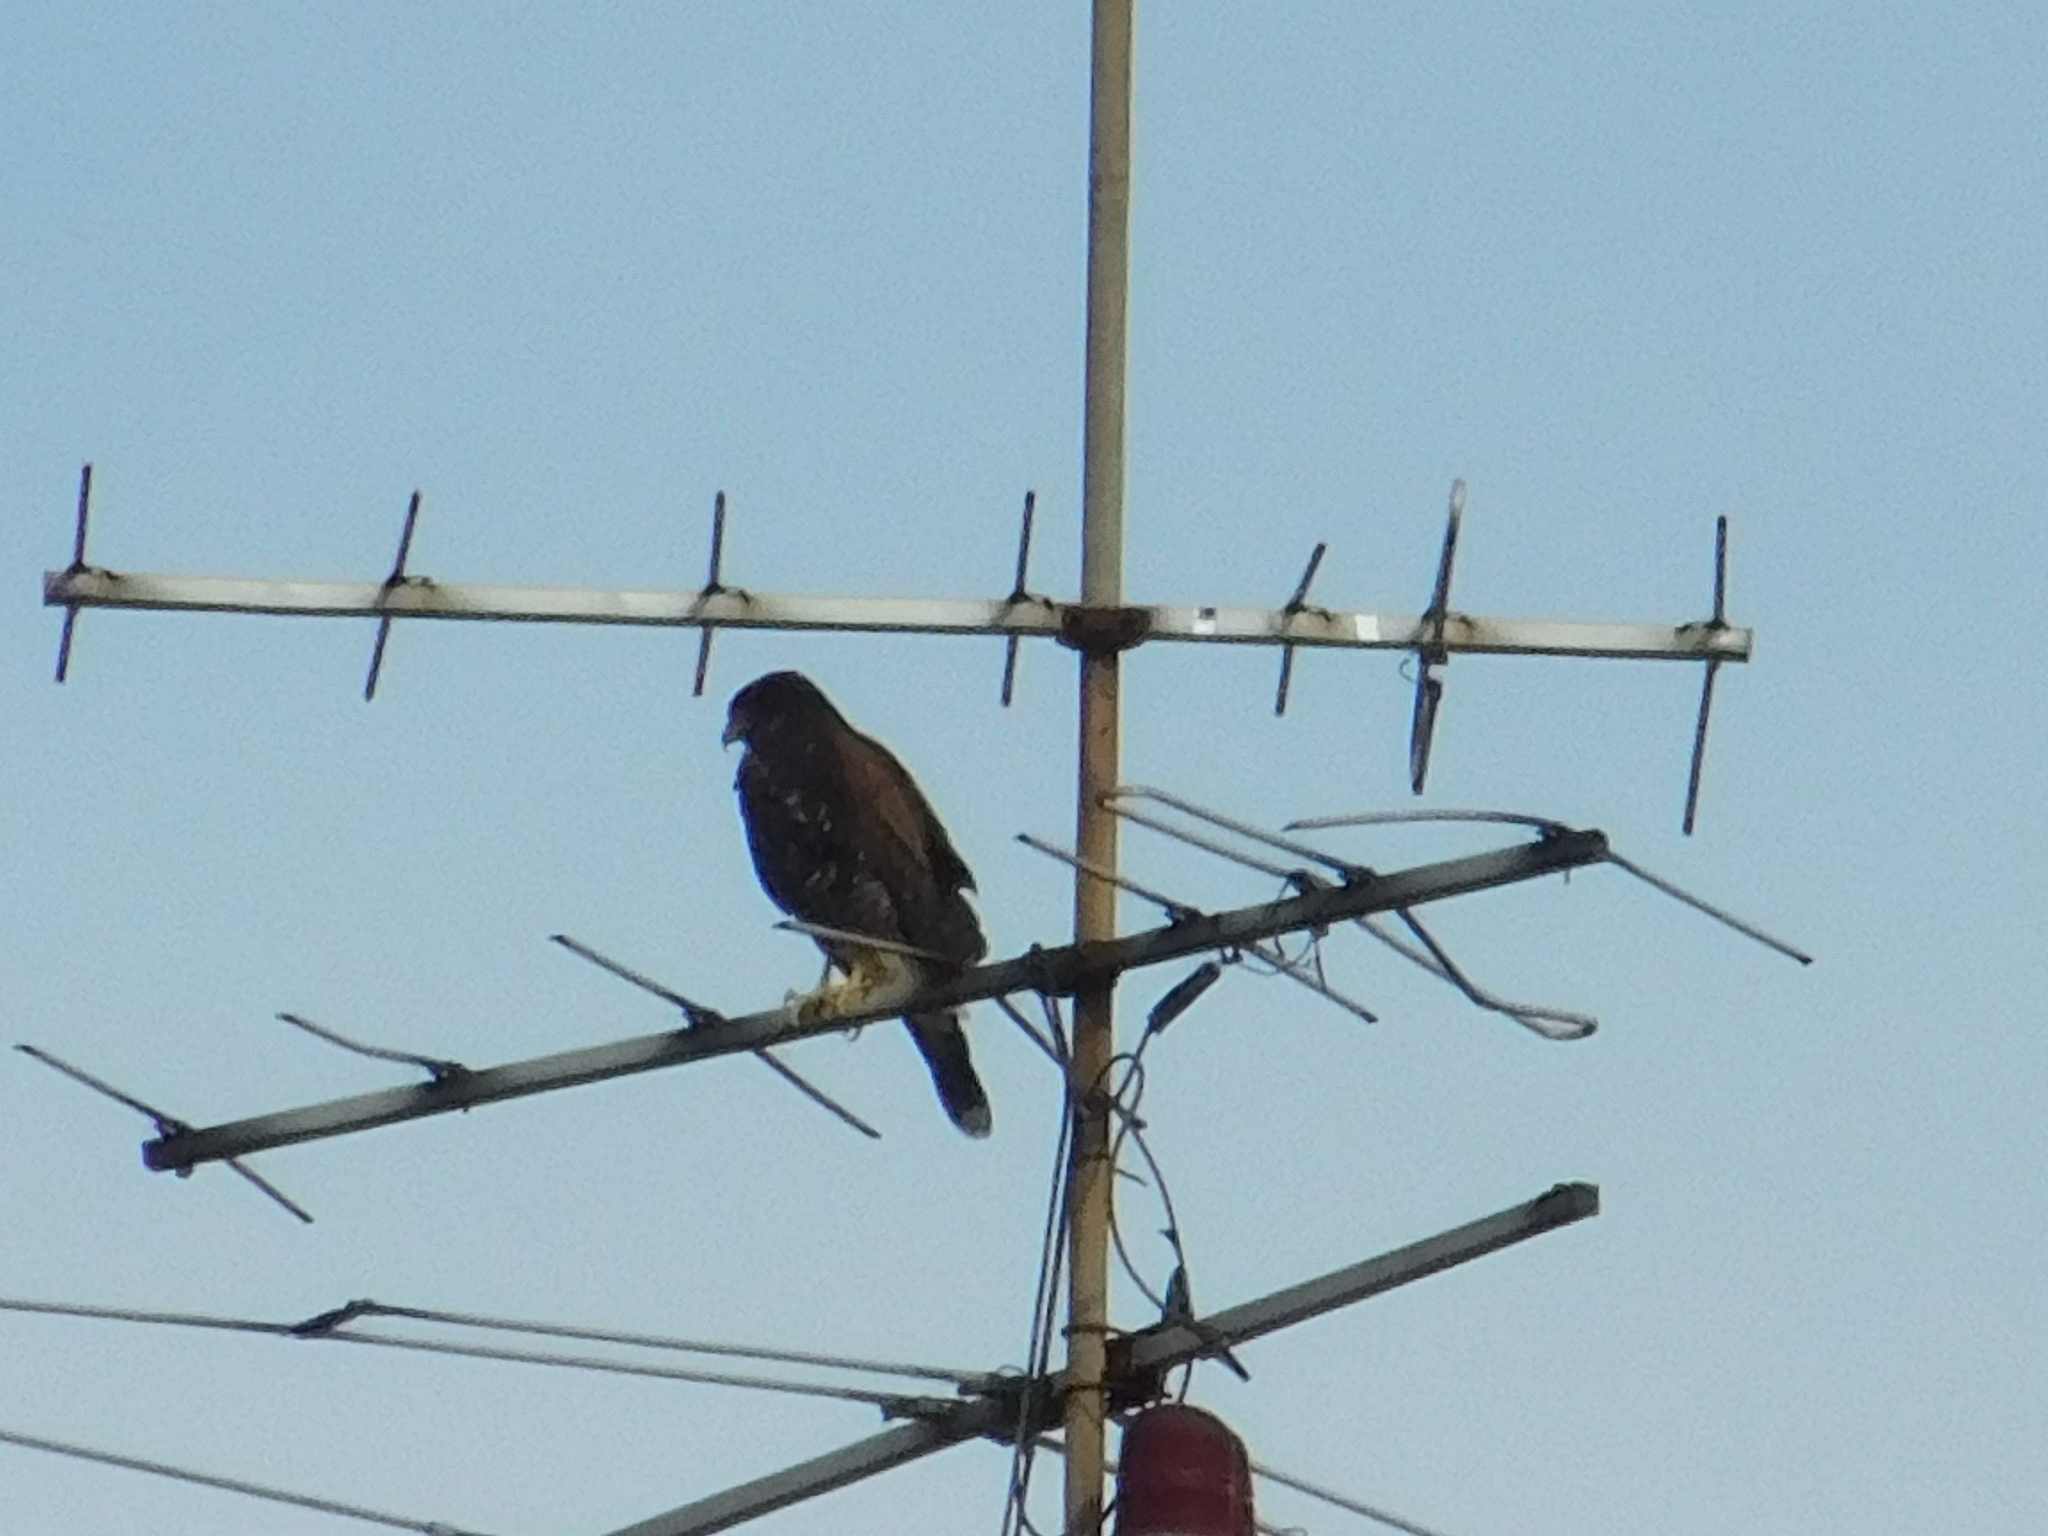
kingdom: Animalia
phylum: Chordata
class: Aves
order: Accipitriformes
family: Accipitridae
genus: Parabuteo
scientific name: Parabuteo unicinctus
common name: Harris's hawk
